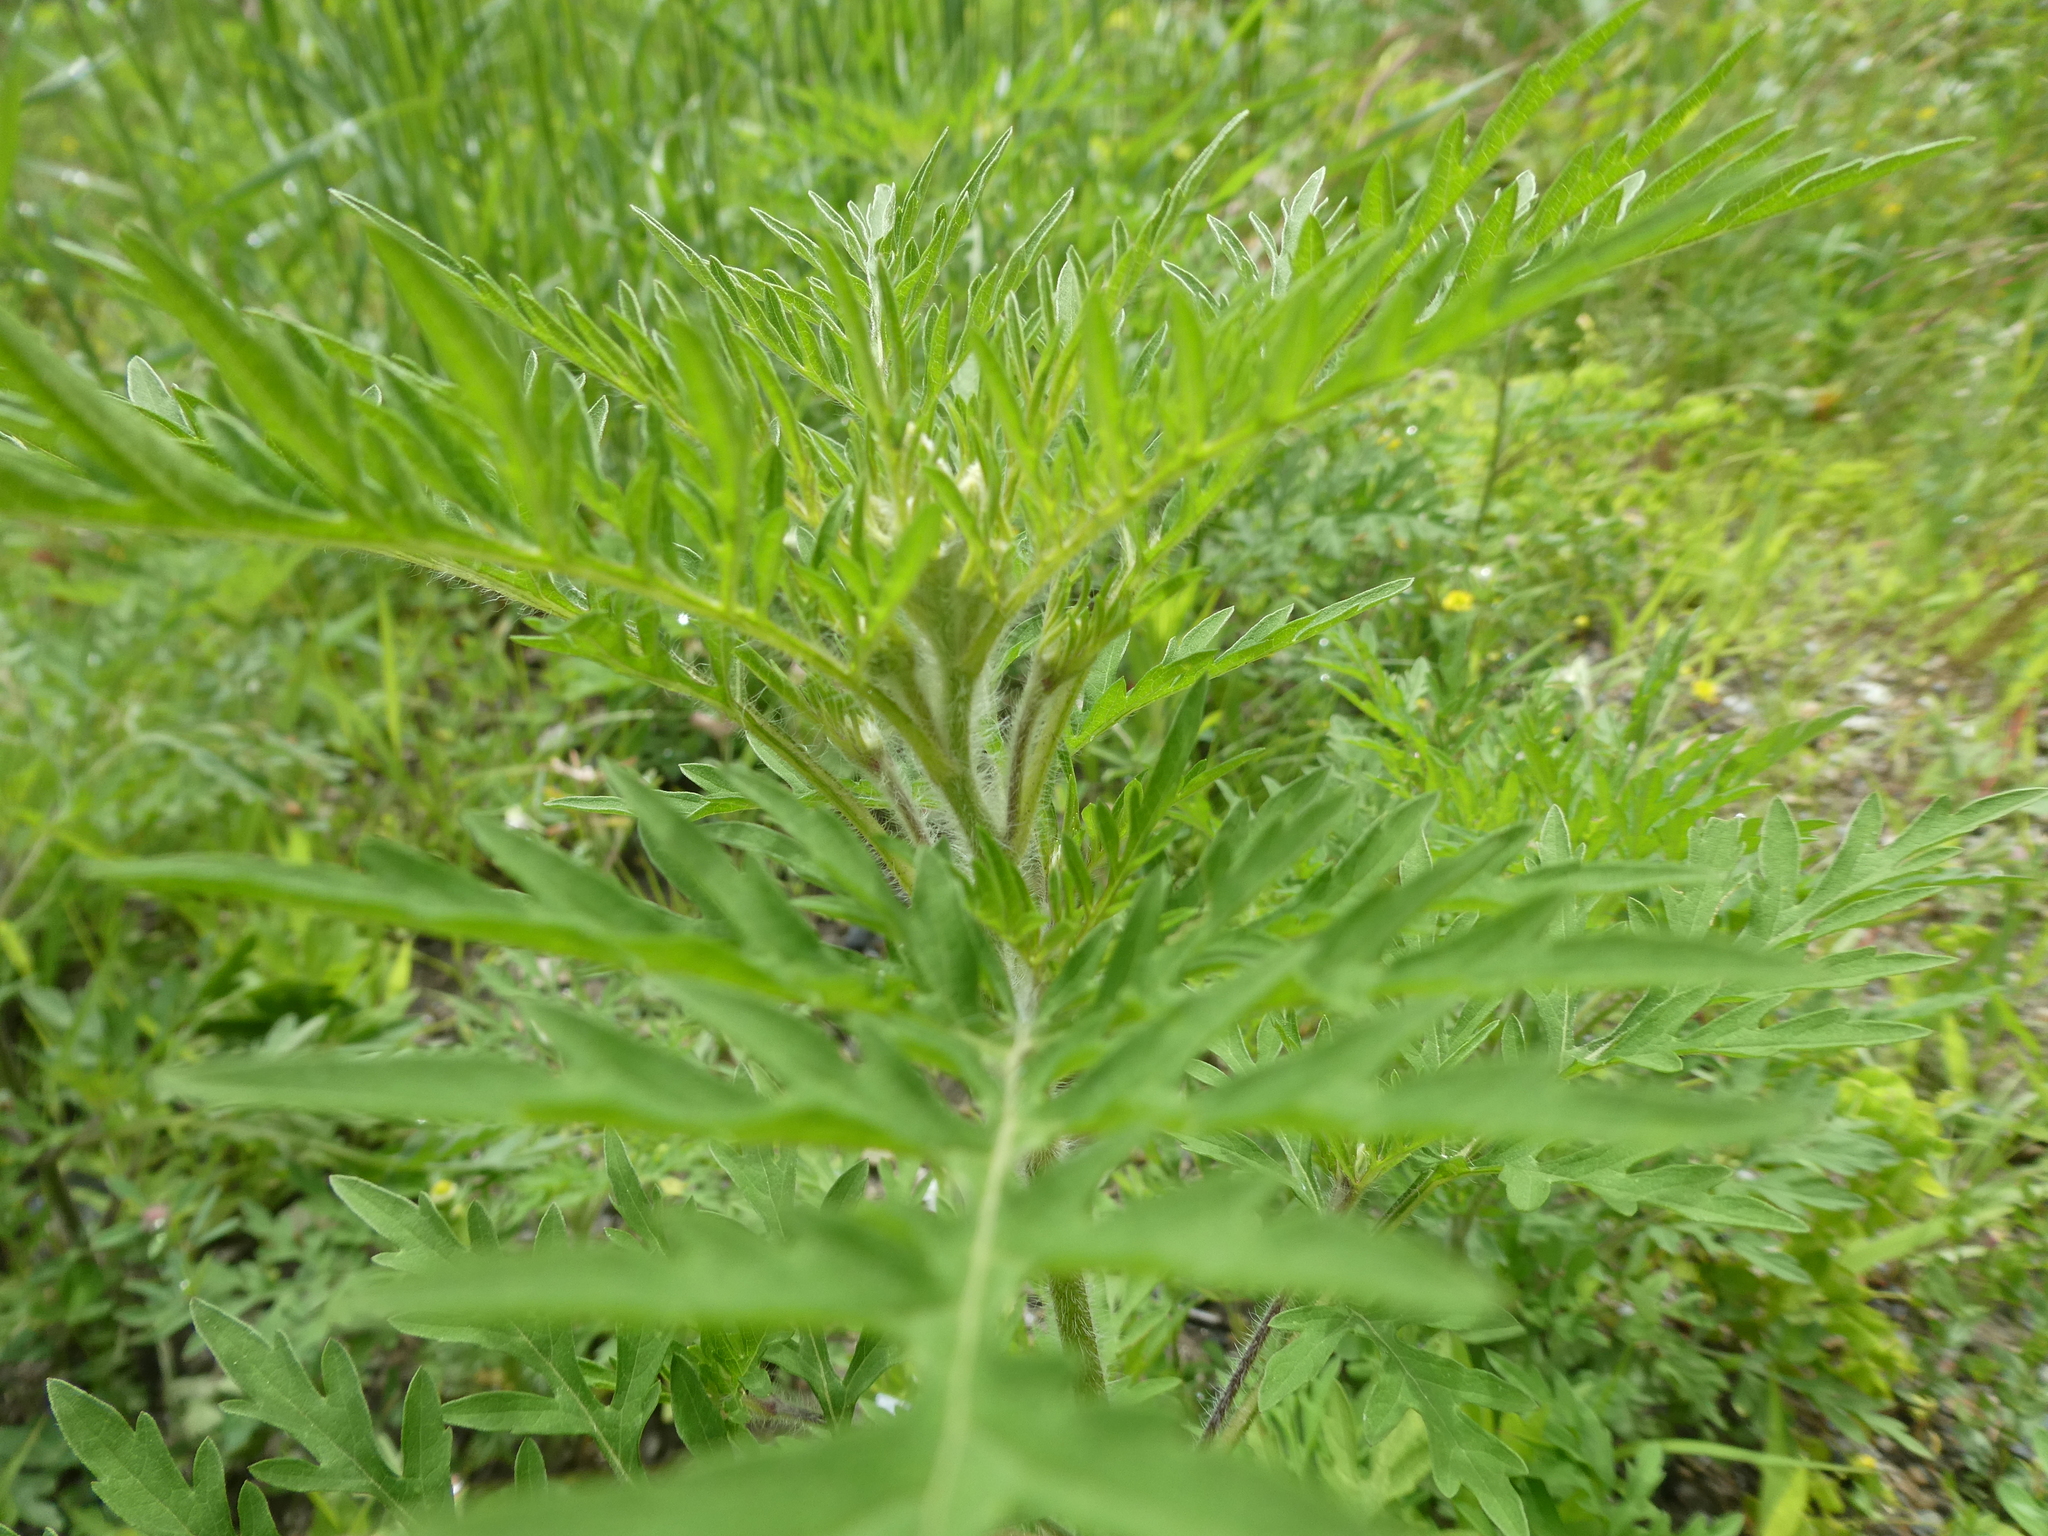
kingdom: Plantae
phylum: Tracheophyta
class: Magnoliopsida
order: Asterales
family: Asteraceae
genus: Ambrosia
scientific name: Ambrosia artemisiifolia
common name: Annual ragweed
